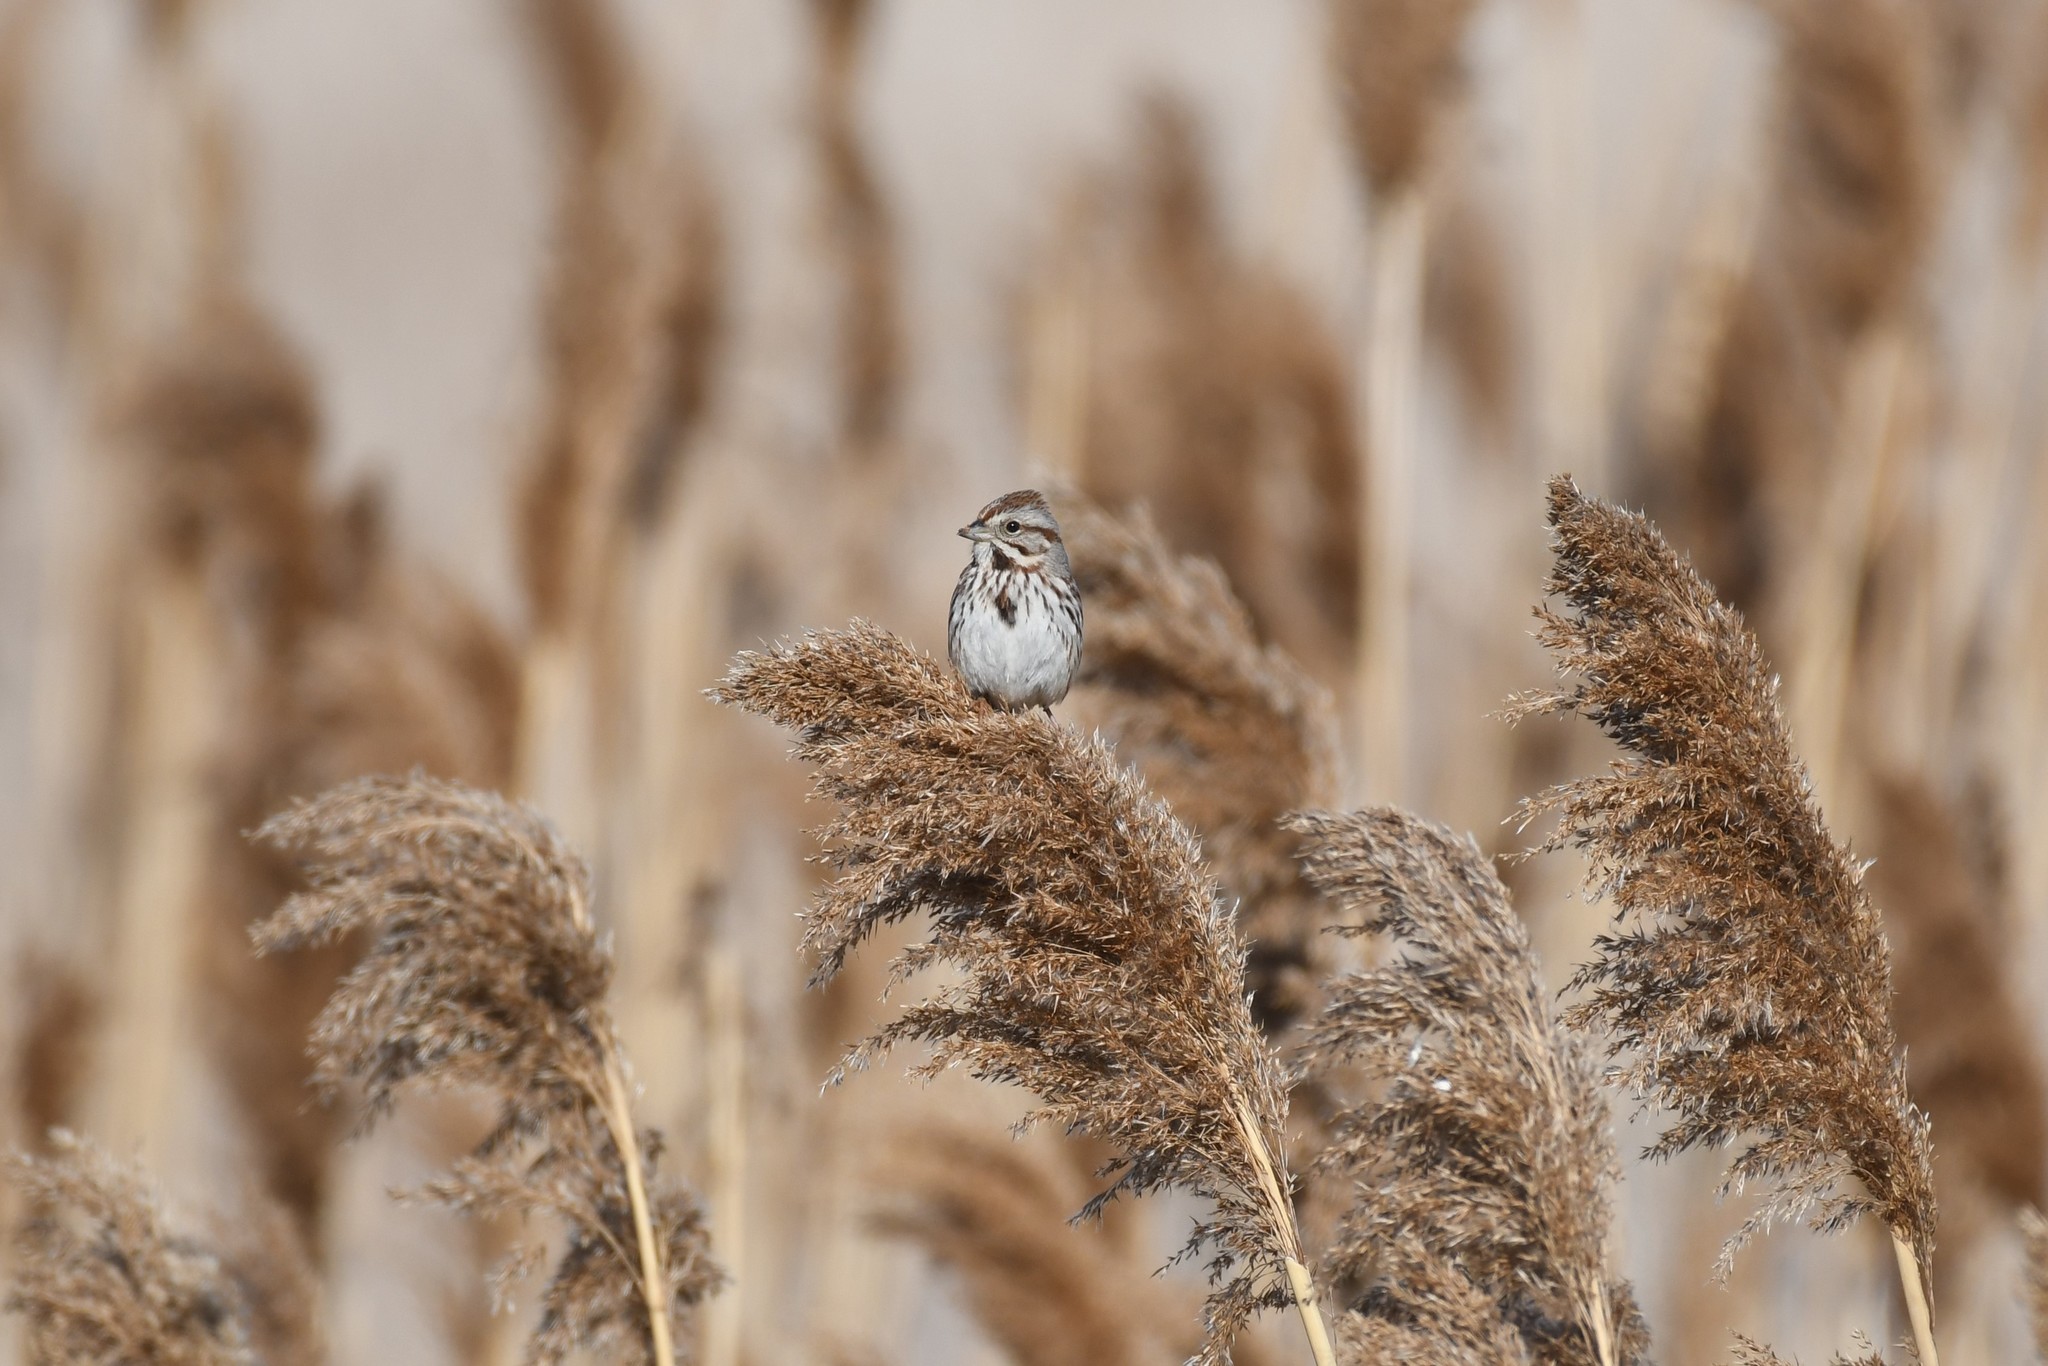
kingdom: Animalia
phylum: Chordata
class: Aves
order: Passeriformes
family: Passerellidae
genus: Melospiza
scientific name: Melospiza melodia
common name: Song sparrow
